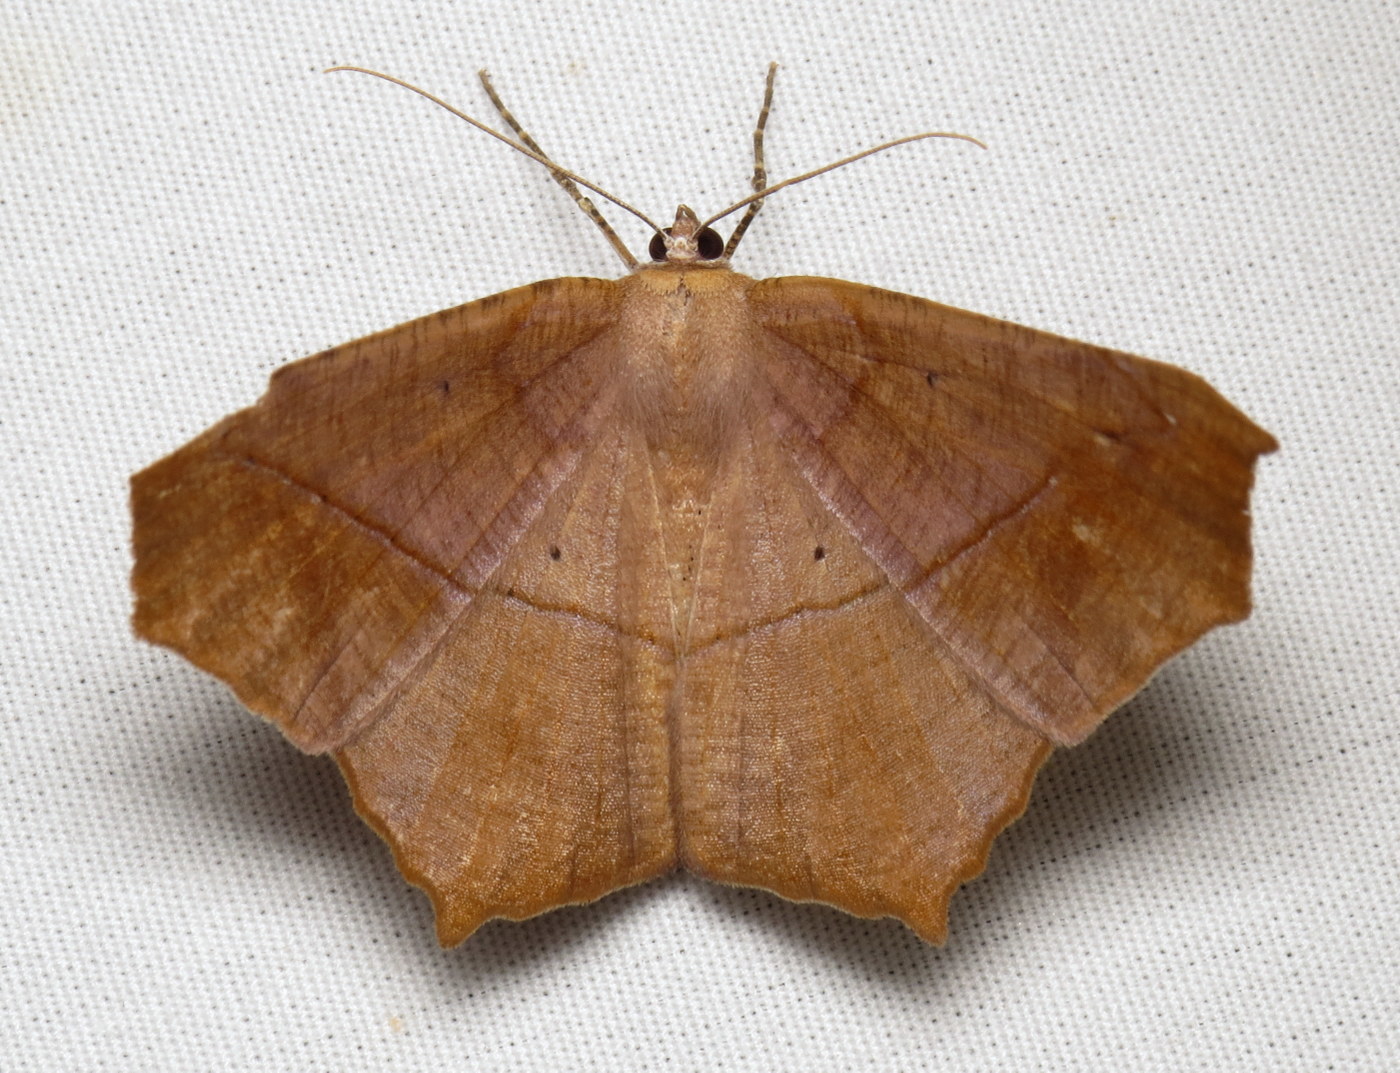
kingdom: Animalia
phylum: Arthropoda
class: Insecta
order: Lepidoptera
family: Geometridae
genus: Prochoerodes
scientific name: Prochoerodes lineola
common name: Large maple spanworm
